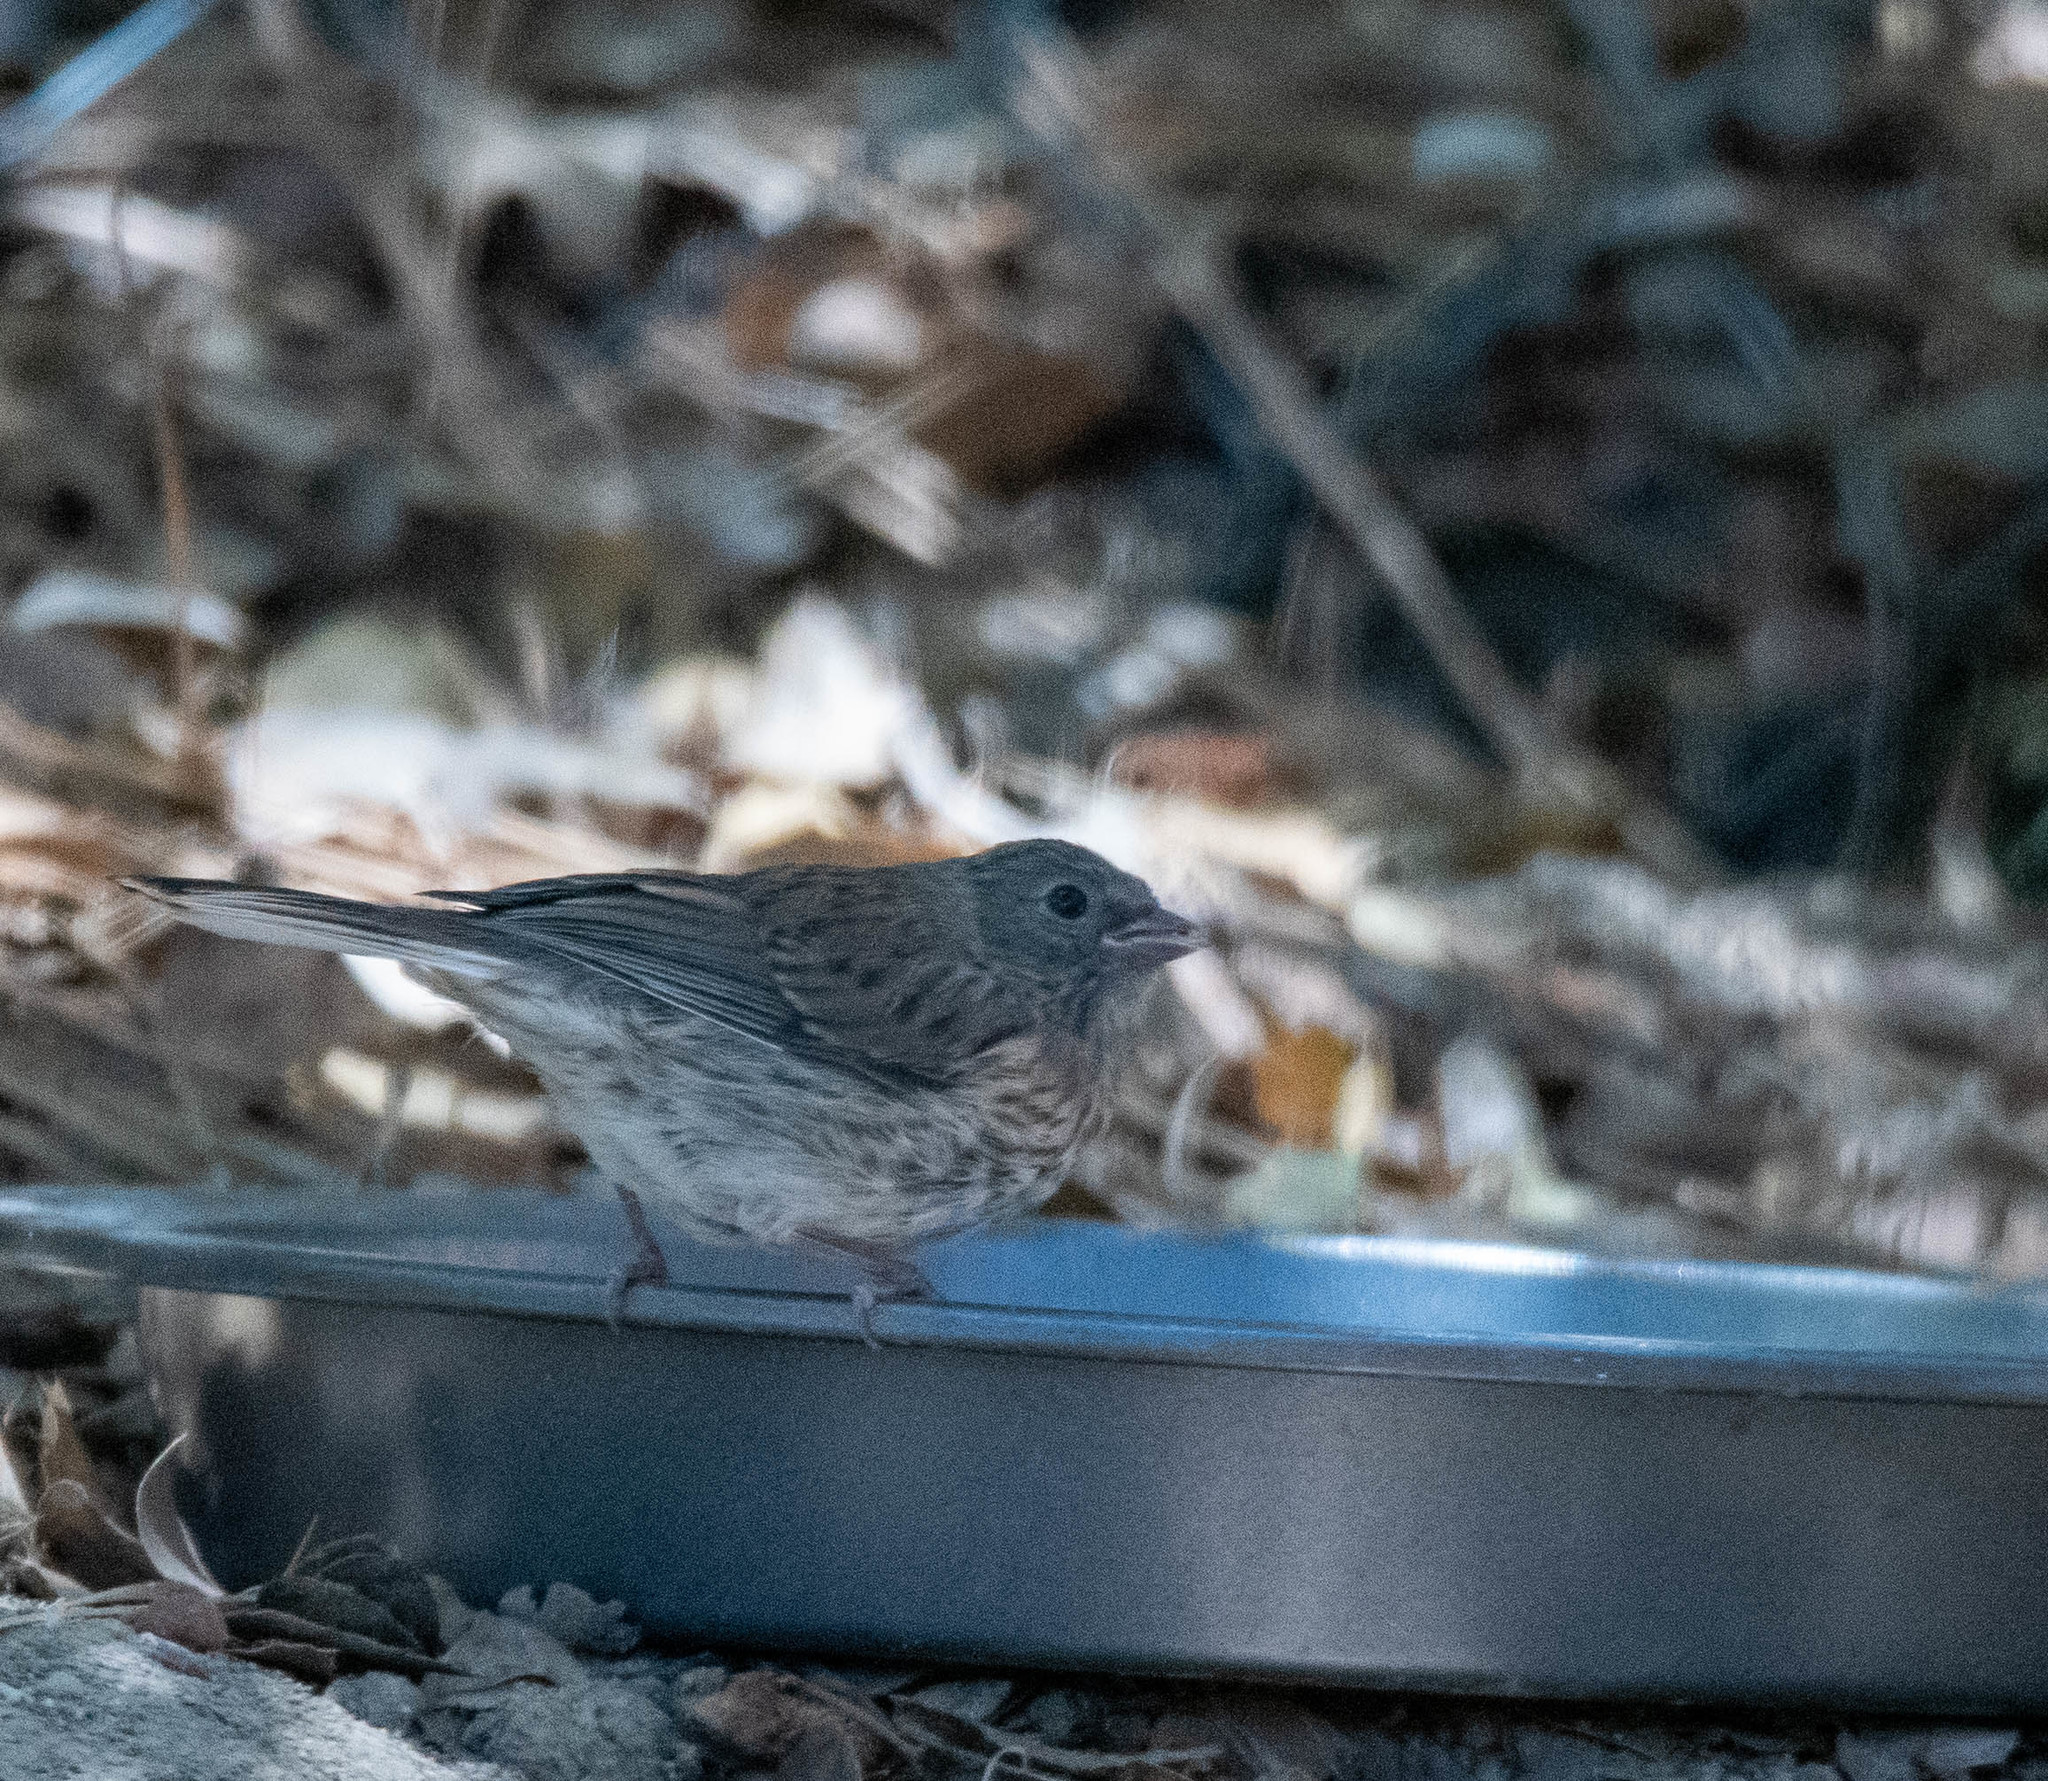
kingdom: Animalia
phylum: Chordata
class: Aves
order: Passeriformes
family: Passerellidae
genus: Junco
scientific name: Junco hyemalis
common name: Dark-eyed junco
